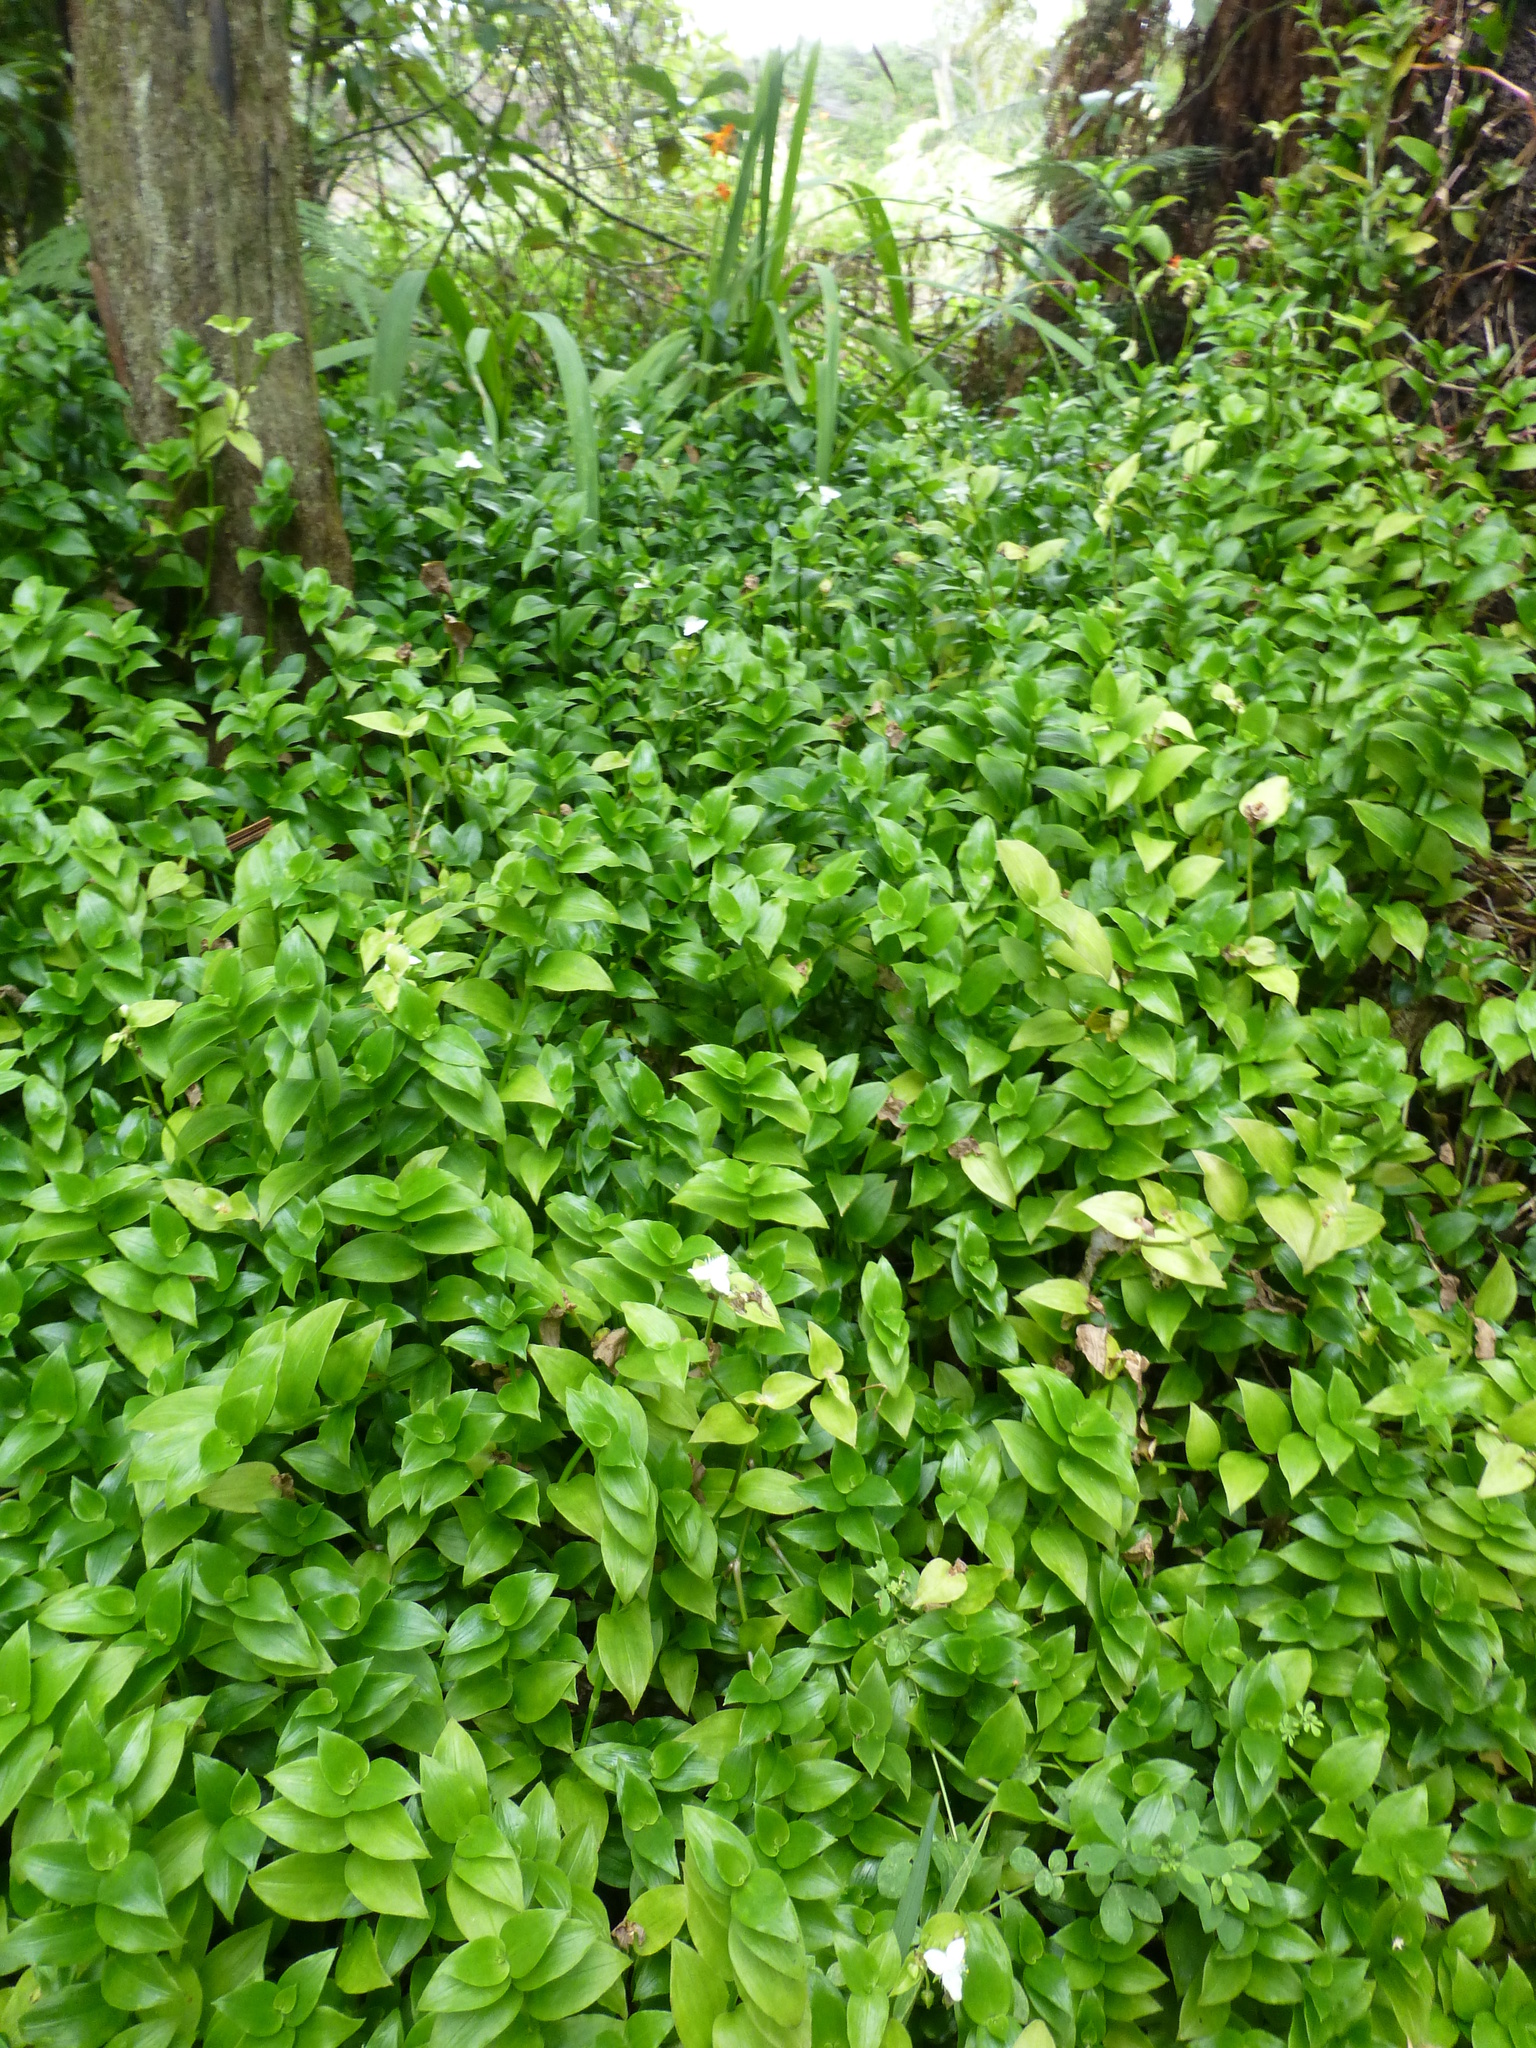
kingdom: Plantae
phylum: Tracheophyta
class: Liliopsida
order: Commelinales
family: Commelinaceae
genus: Tradescantia
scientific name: Tradescantia fluminensis
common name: Wandering-jew
